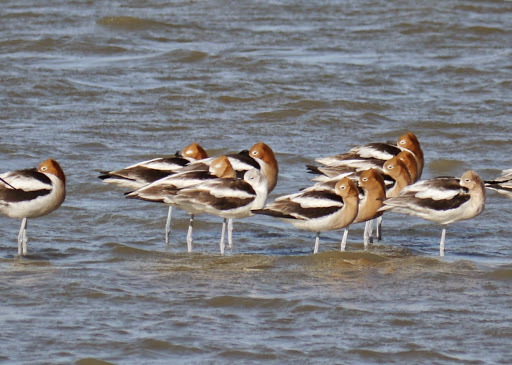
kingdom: Animalia
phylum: Chordata
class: Aves
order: Charadriiformes
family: Recurvirostridae
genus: Recurvirostra
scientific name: Recurvirostra americana
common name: American avocet
